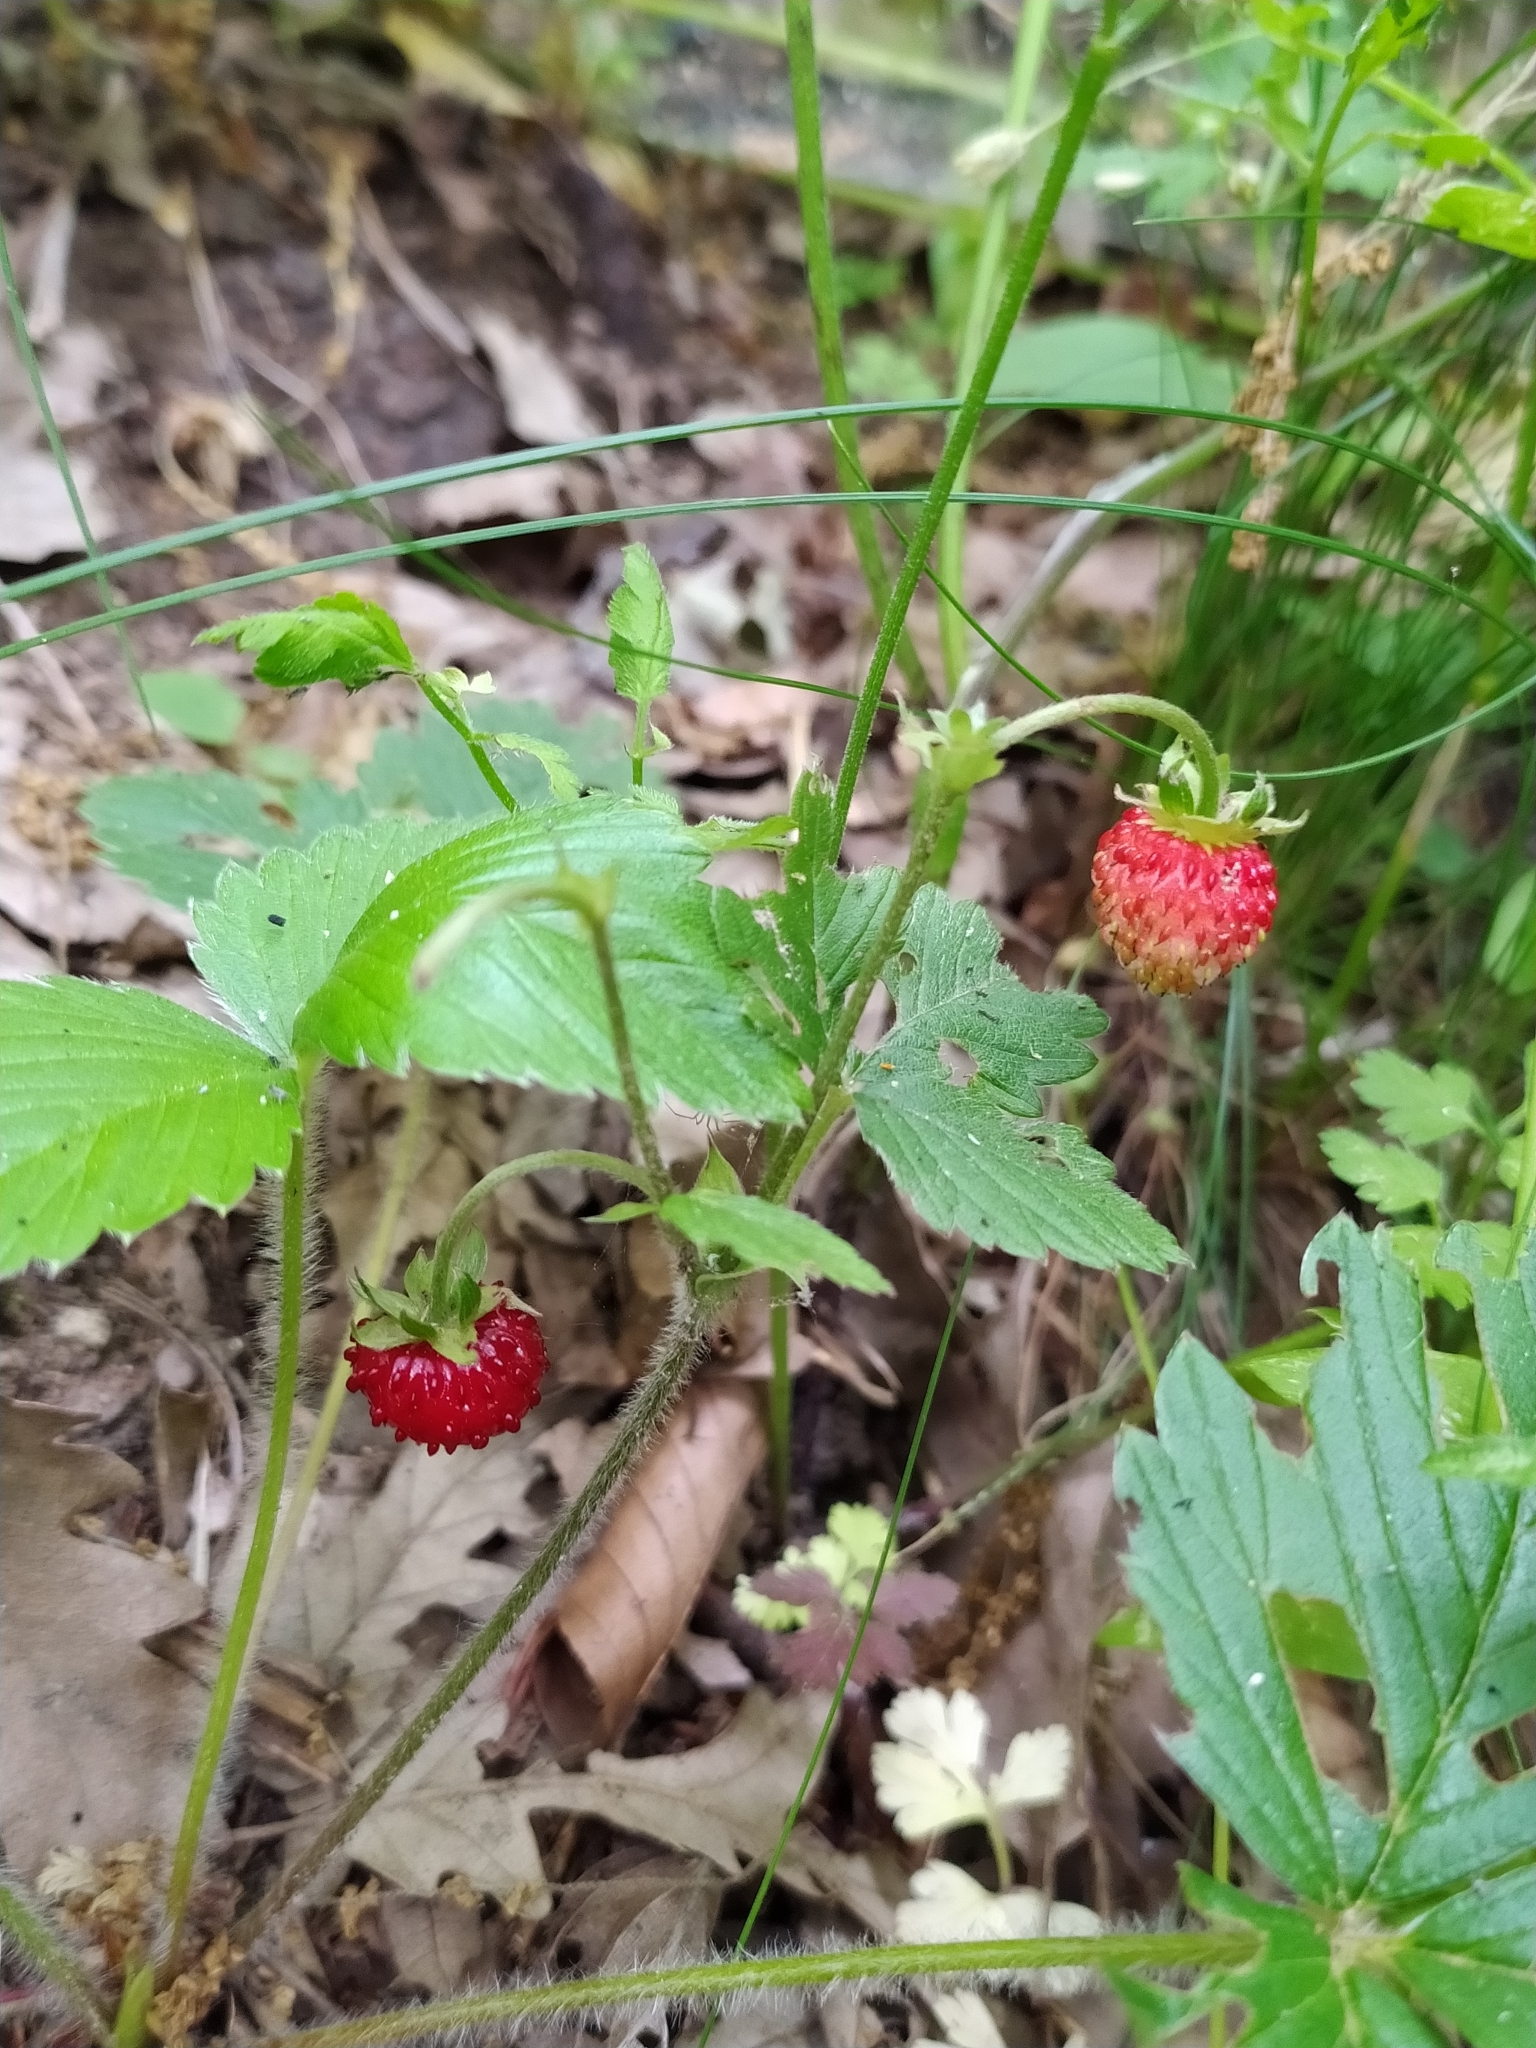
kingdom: Plantae
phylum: Tracheophyta
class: Magnoliopsida
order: Rosales
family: Rosaceae
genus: Fragaria
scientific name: Fragaria vesca
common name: Wild strawberry
